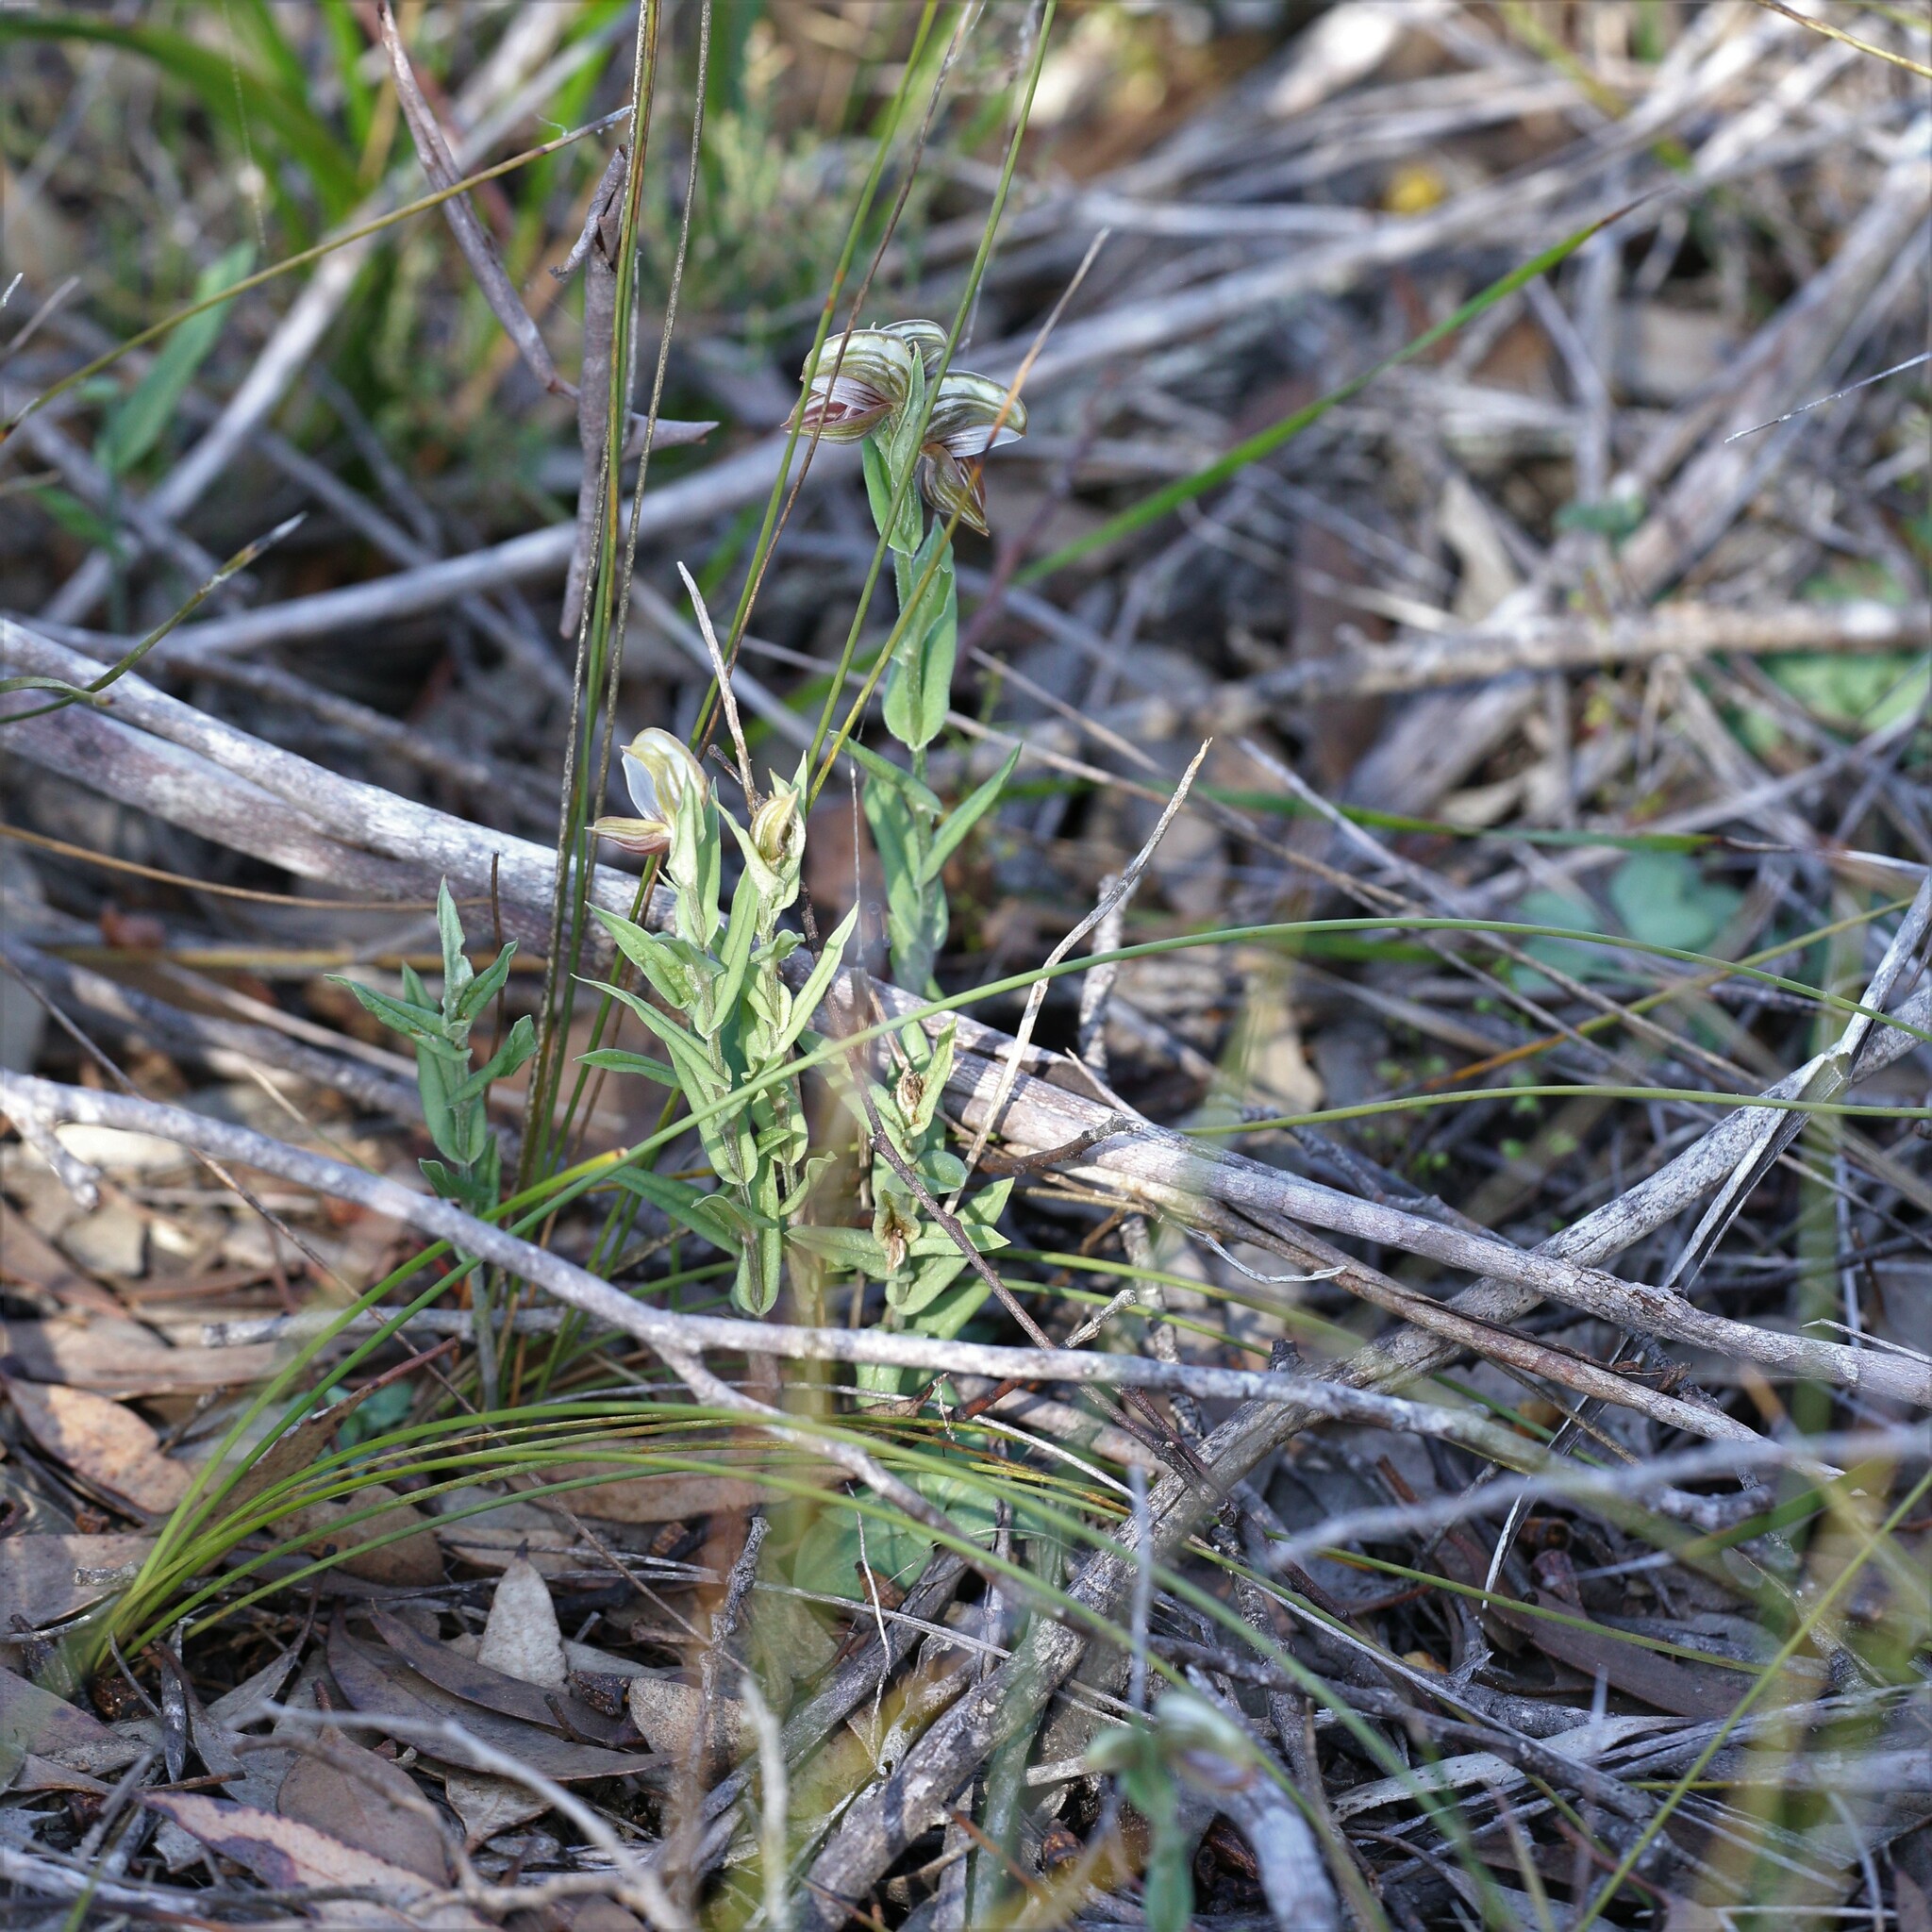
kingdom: Plantae
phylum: Tracheophyta
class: Liliopsida
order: Asparagales
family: Orchidaceae
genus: Pterostylis
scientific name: Pterostylis concava
